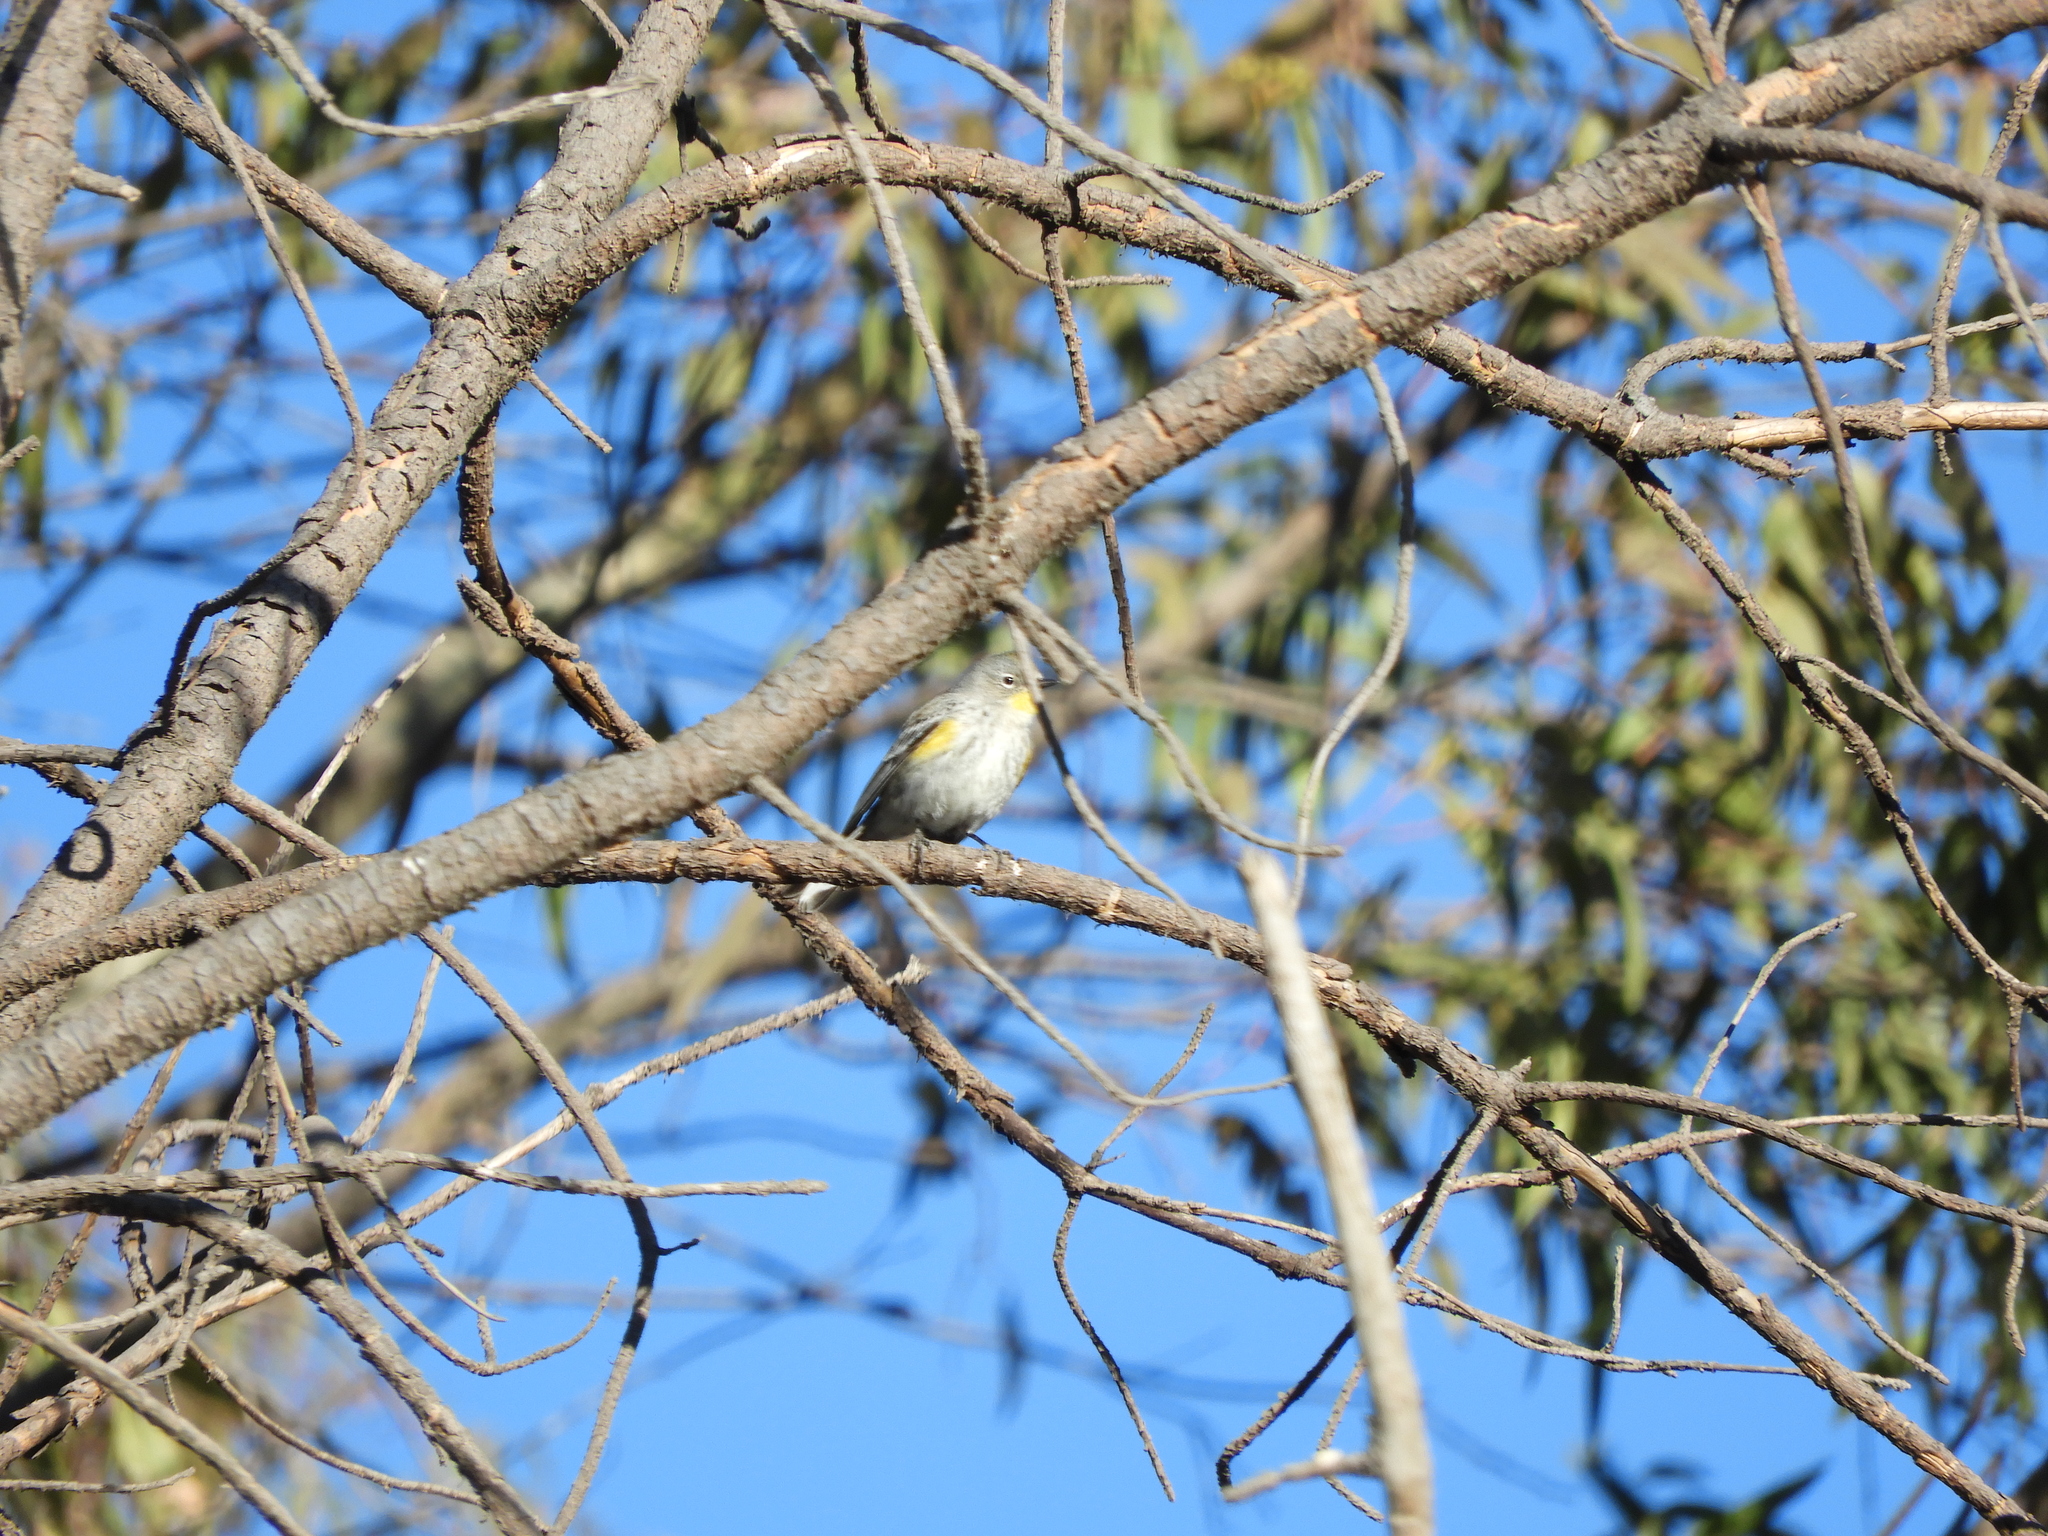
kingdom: Animalia
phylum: Chordata
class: Aves
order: Passeriformes
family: Parulidae
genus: Setophaga
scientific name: Setophaga coronata
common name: Myrtle warbler
